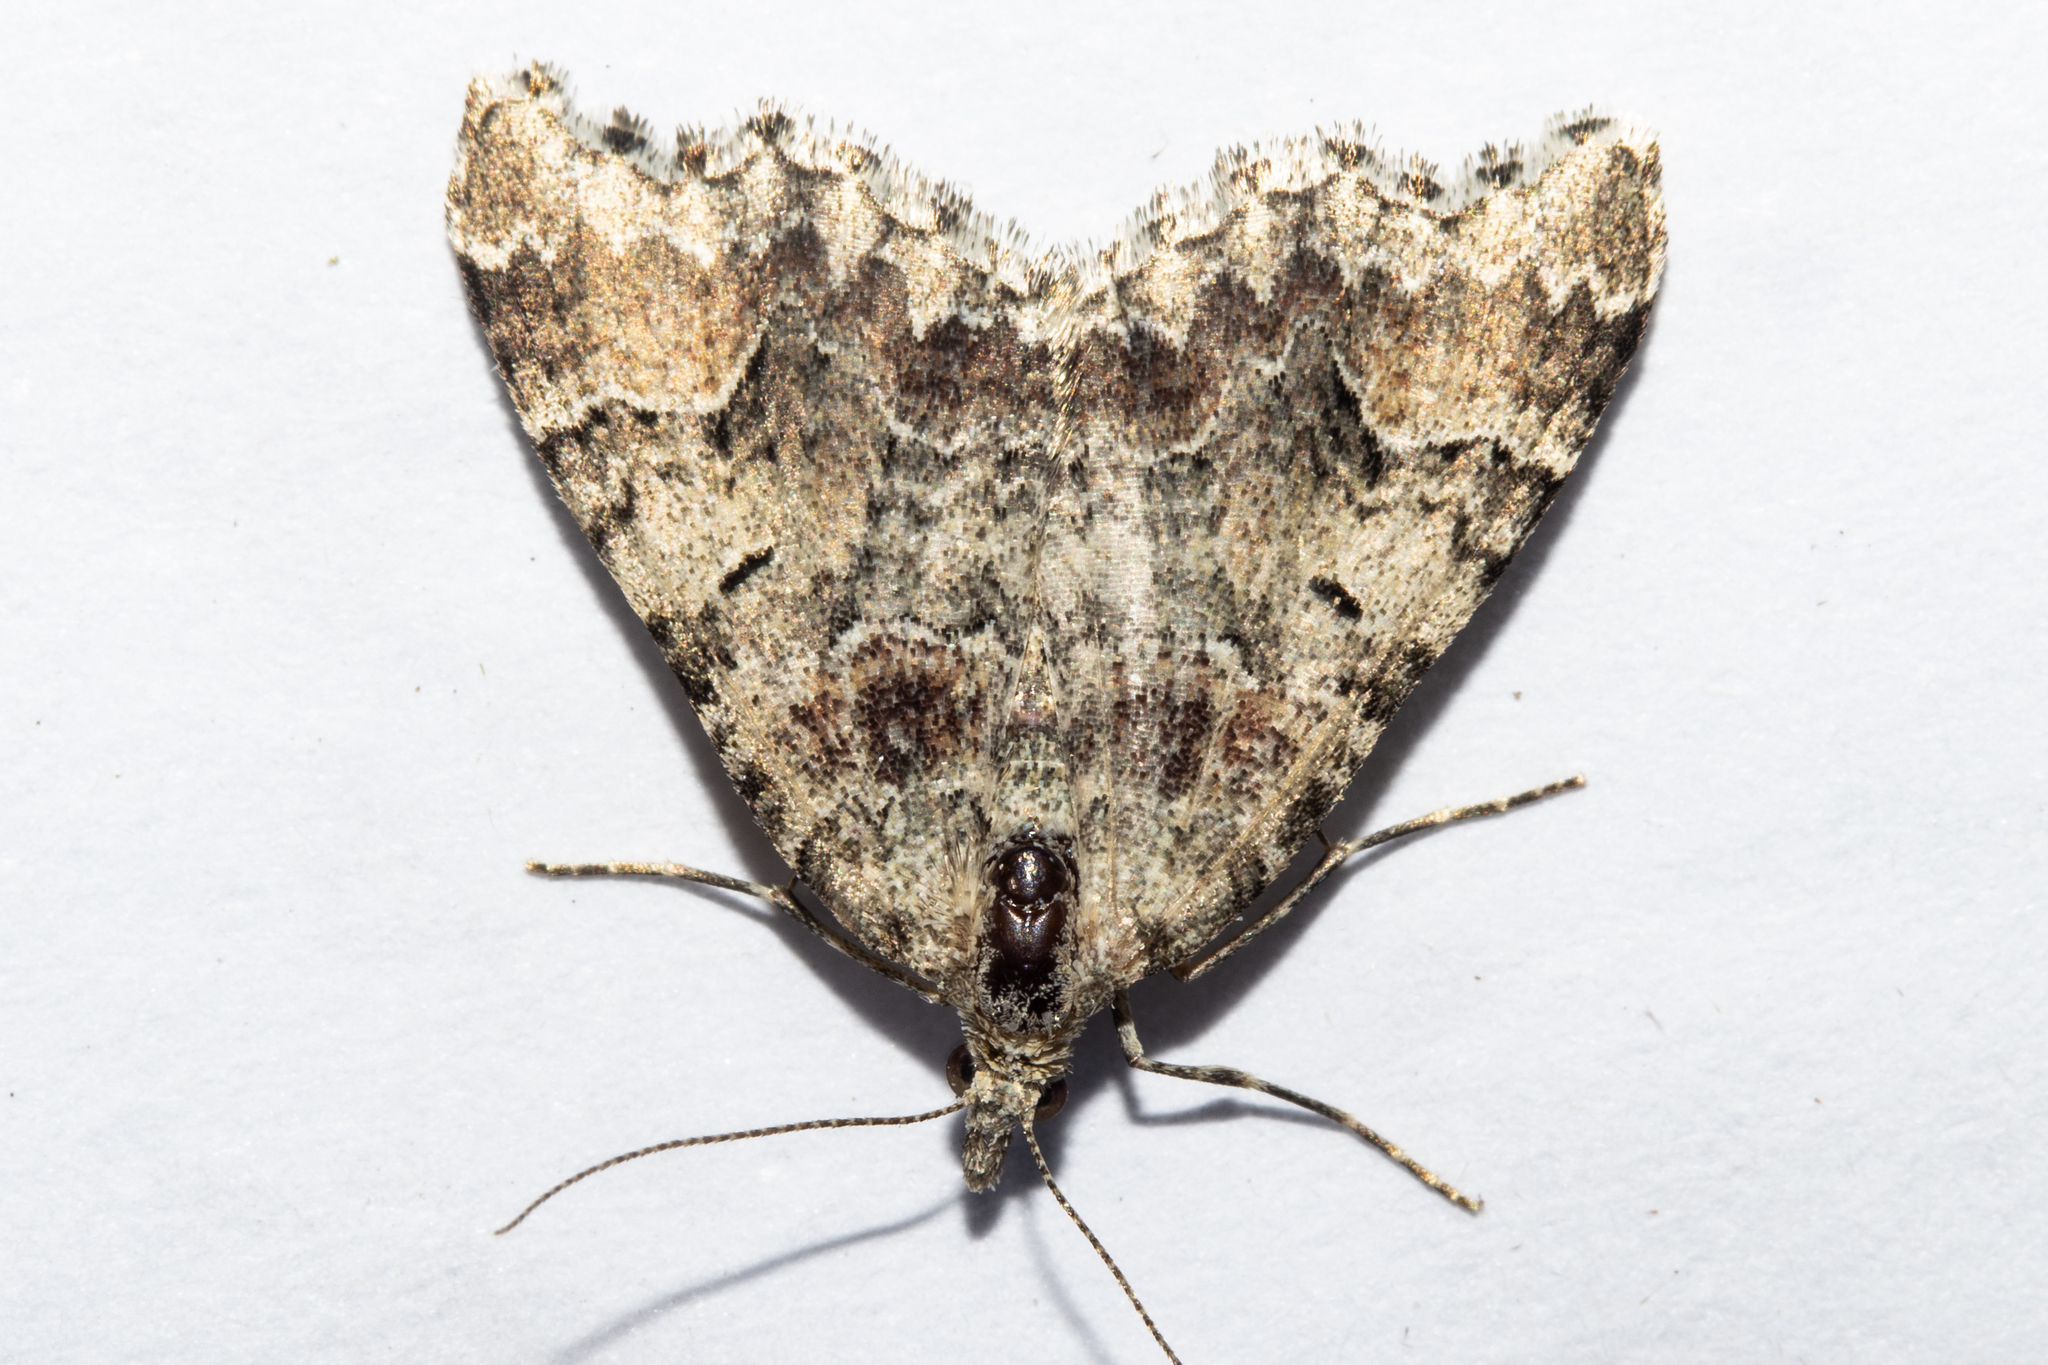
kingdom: Animalia
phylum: Arthropoda
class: Insecta
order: Lepidoptera
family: Geometridae
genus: Helastia
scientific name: Helastia cryptica
